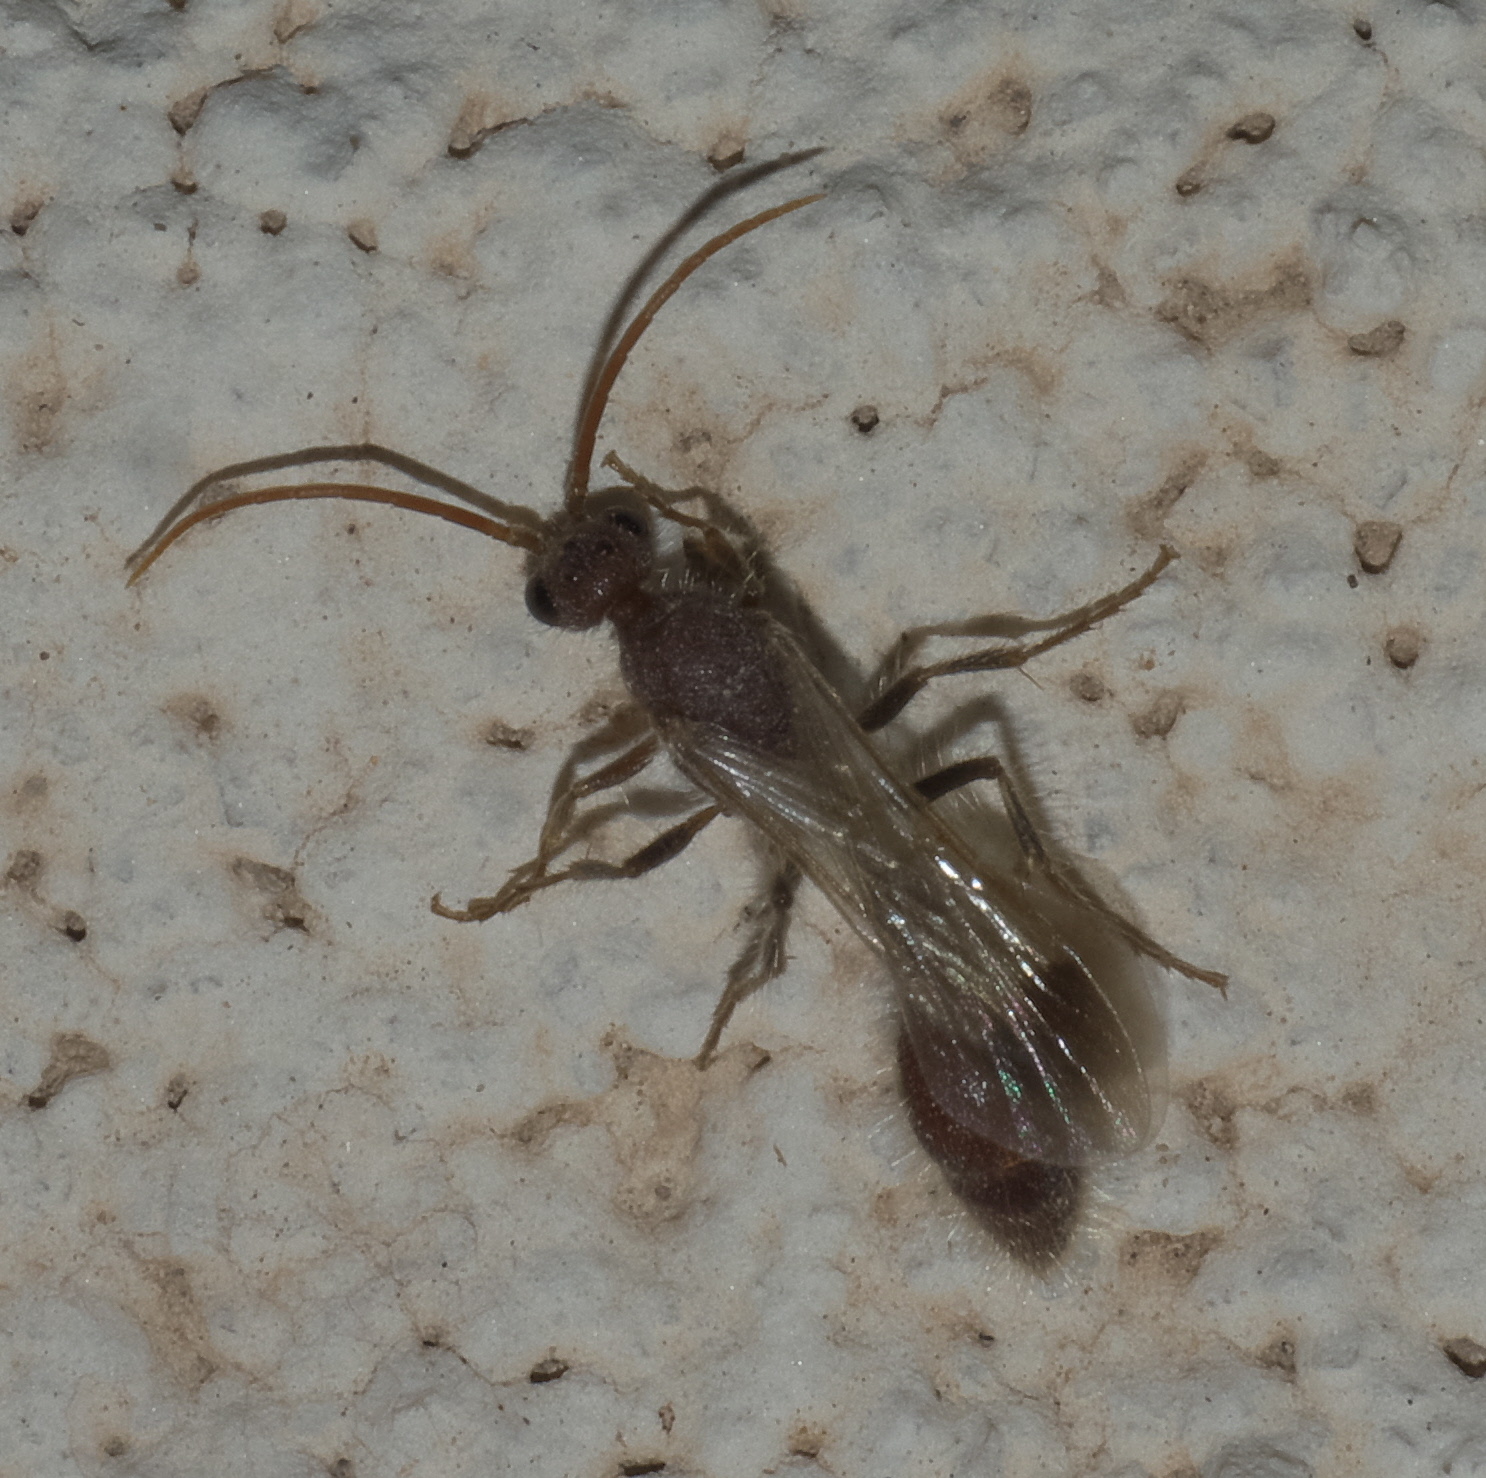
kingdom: Animalia
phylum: Arthropoda
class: Insecta
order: Hymenoptera
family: Chyphotidae
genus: Chyphotes
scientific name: Chyphotes
